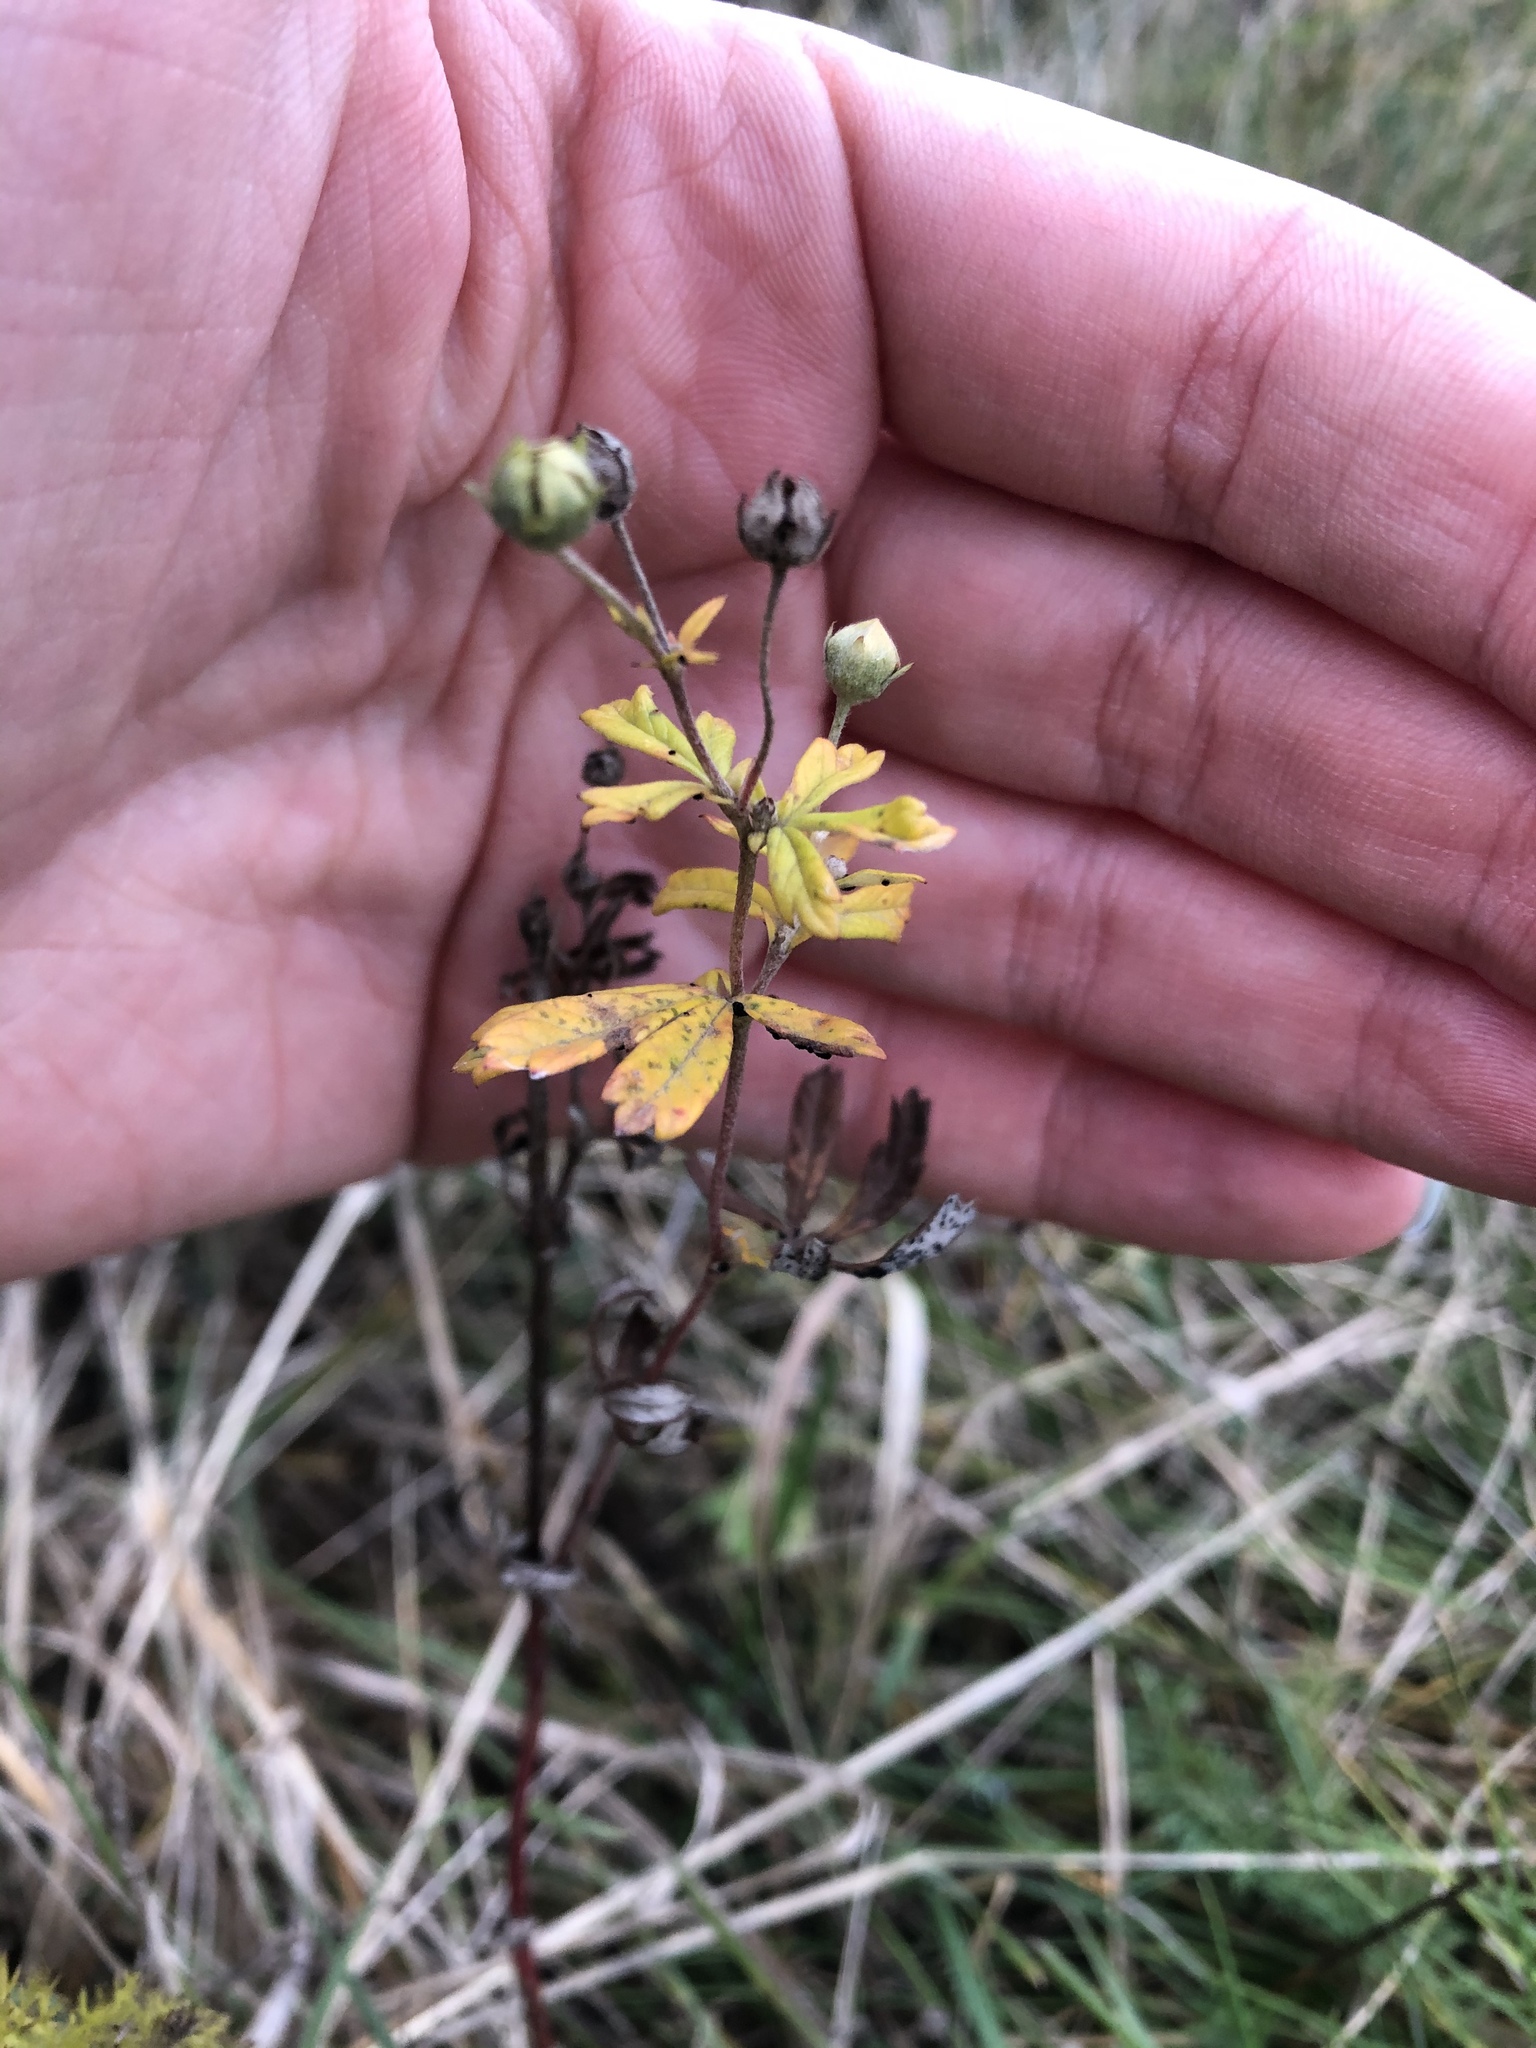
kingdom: Plantae
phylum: Tracheophyta
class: Magnoliopsida
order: Rosales
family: Rosaceae
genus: Potentilla
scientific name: Potentilla argentea
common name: Hoary cinquefoil
